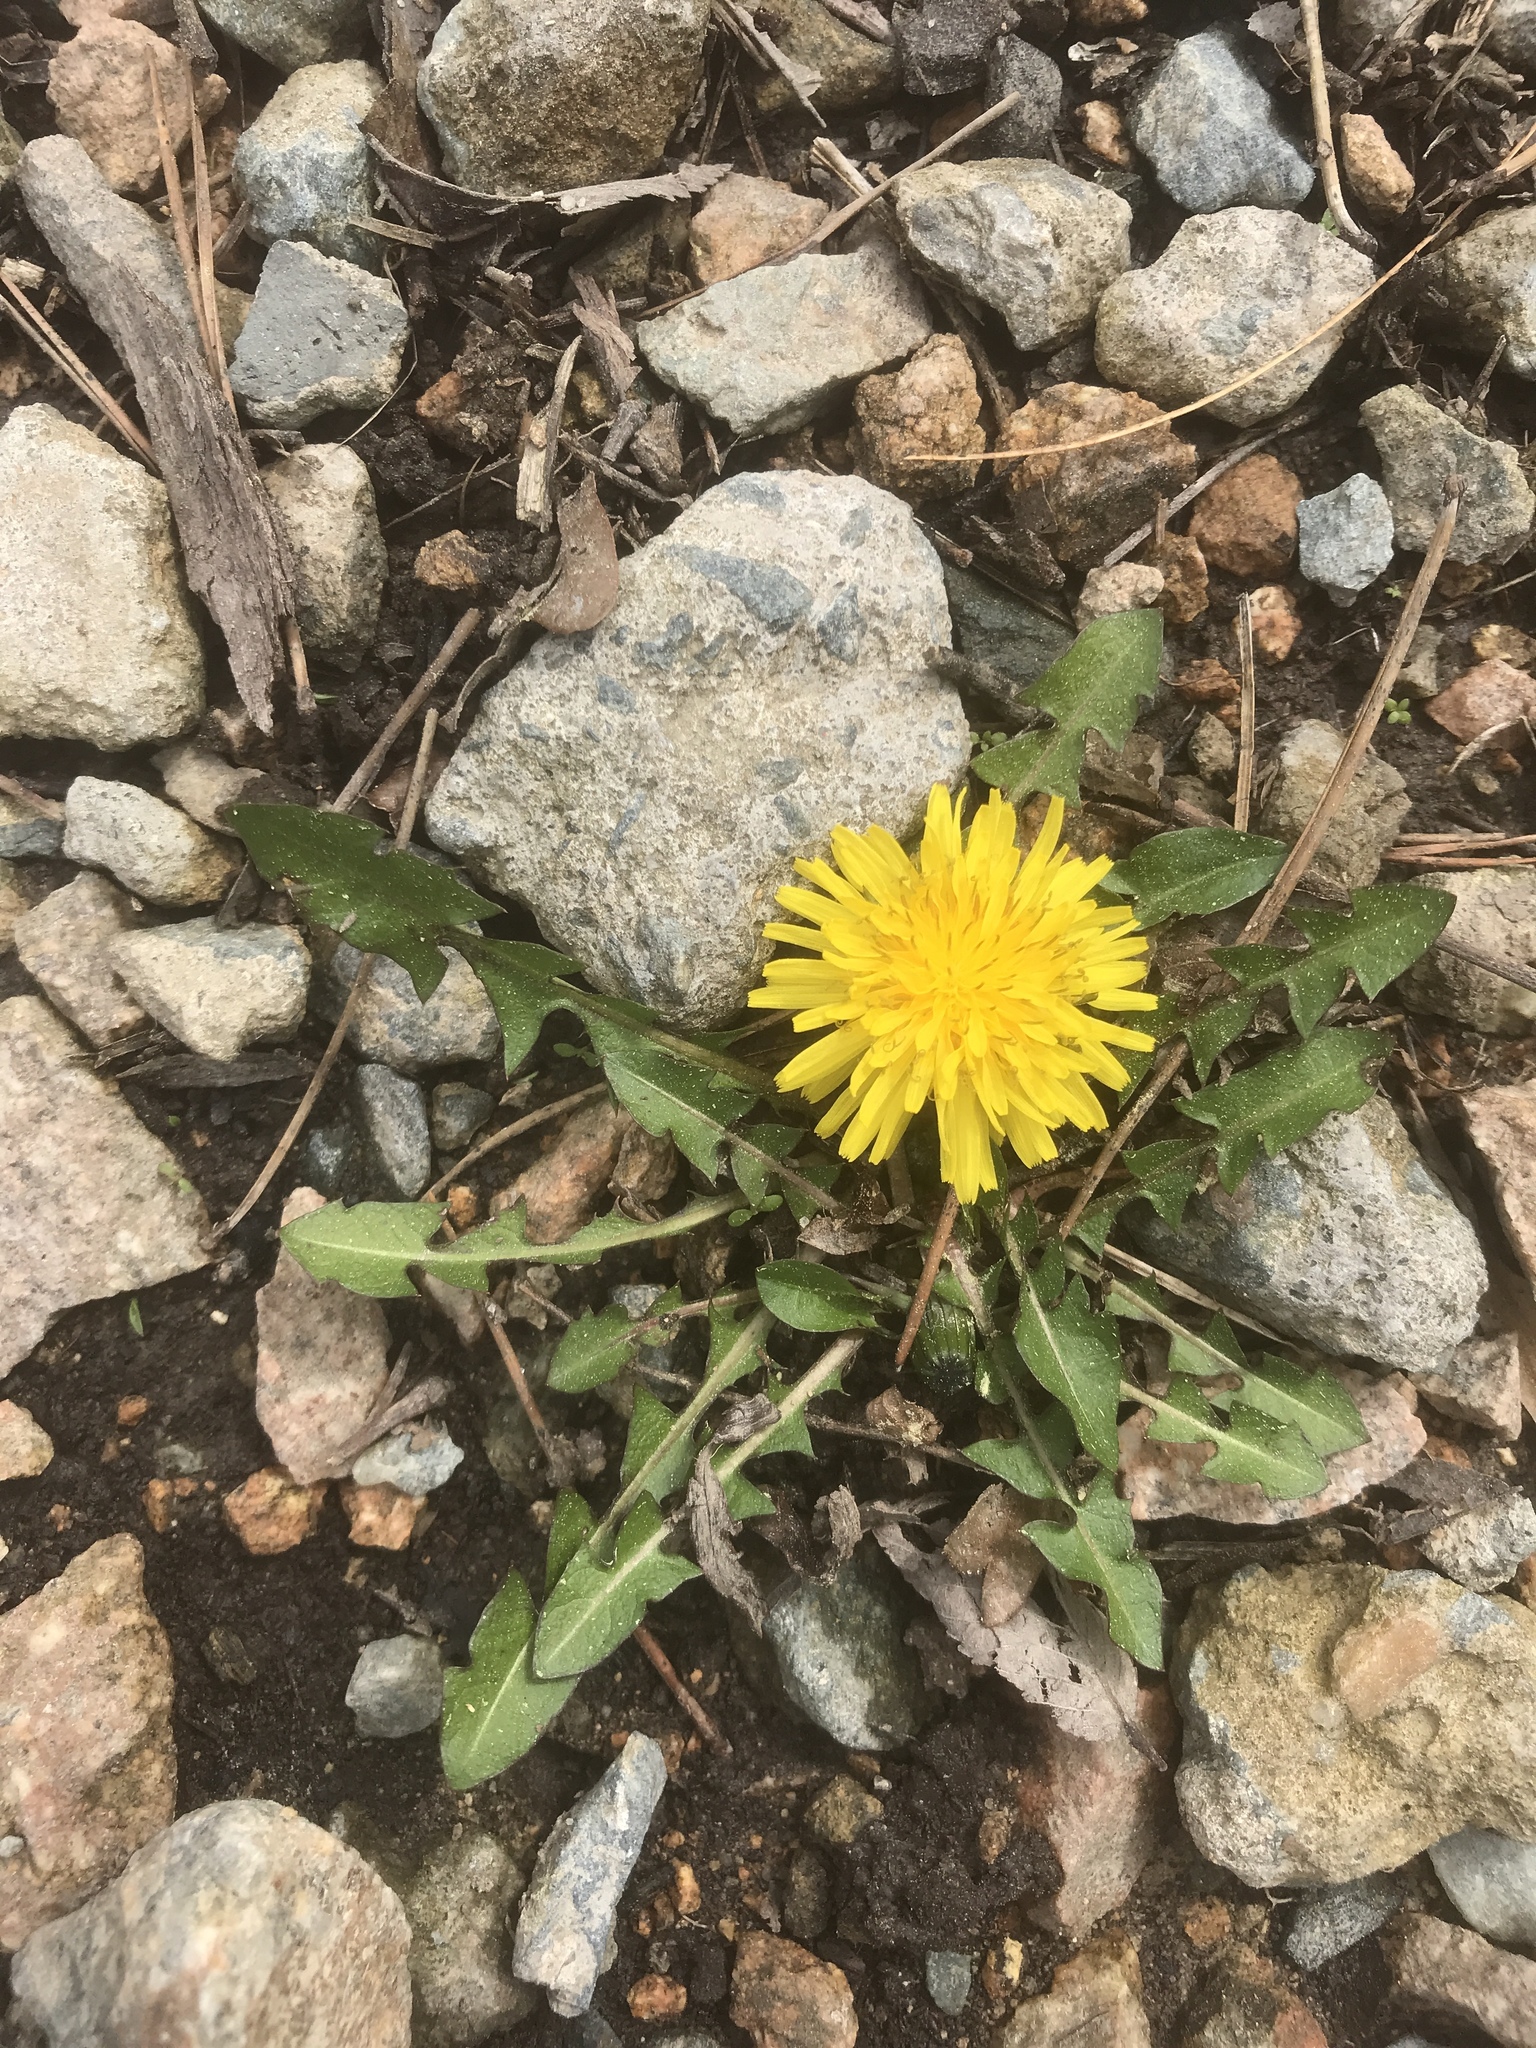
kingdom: Plantae
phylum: Tracheophyta
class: Magnoliopsida
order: Asterales
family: Asteraceae
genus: Taraxacum
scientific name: Taraxacum officinale
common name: Common dandelion
